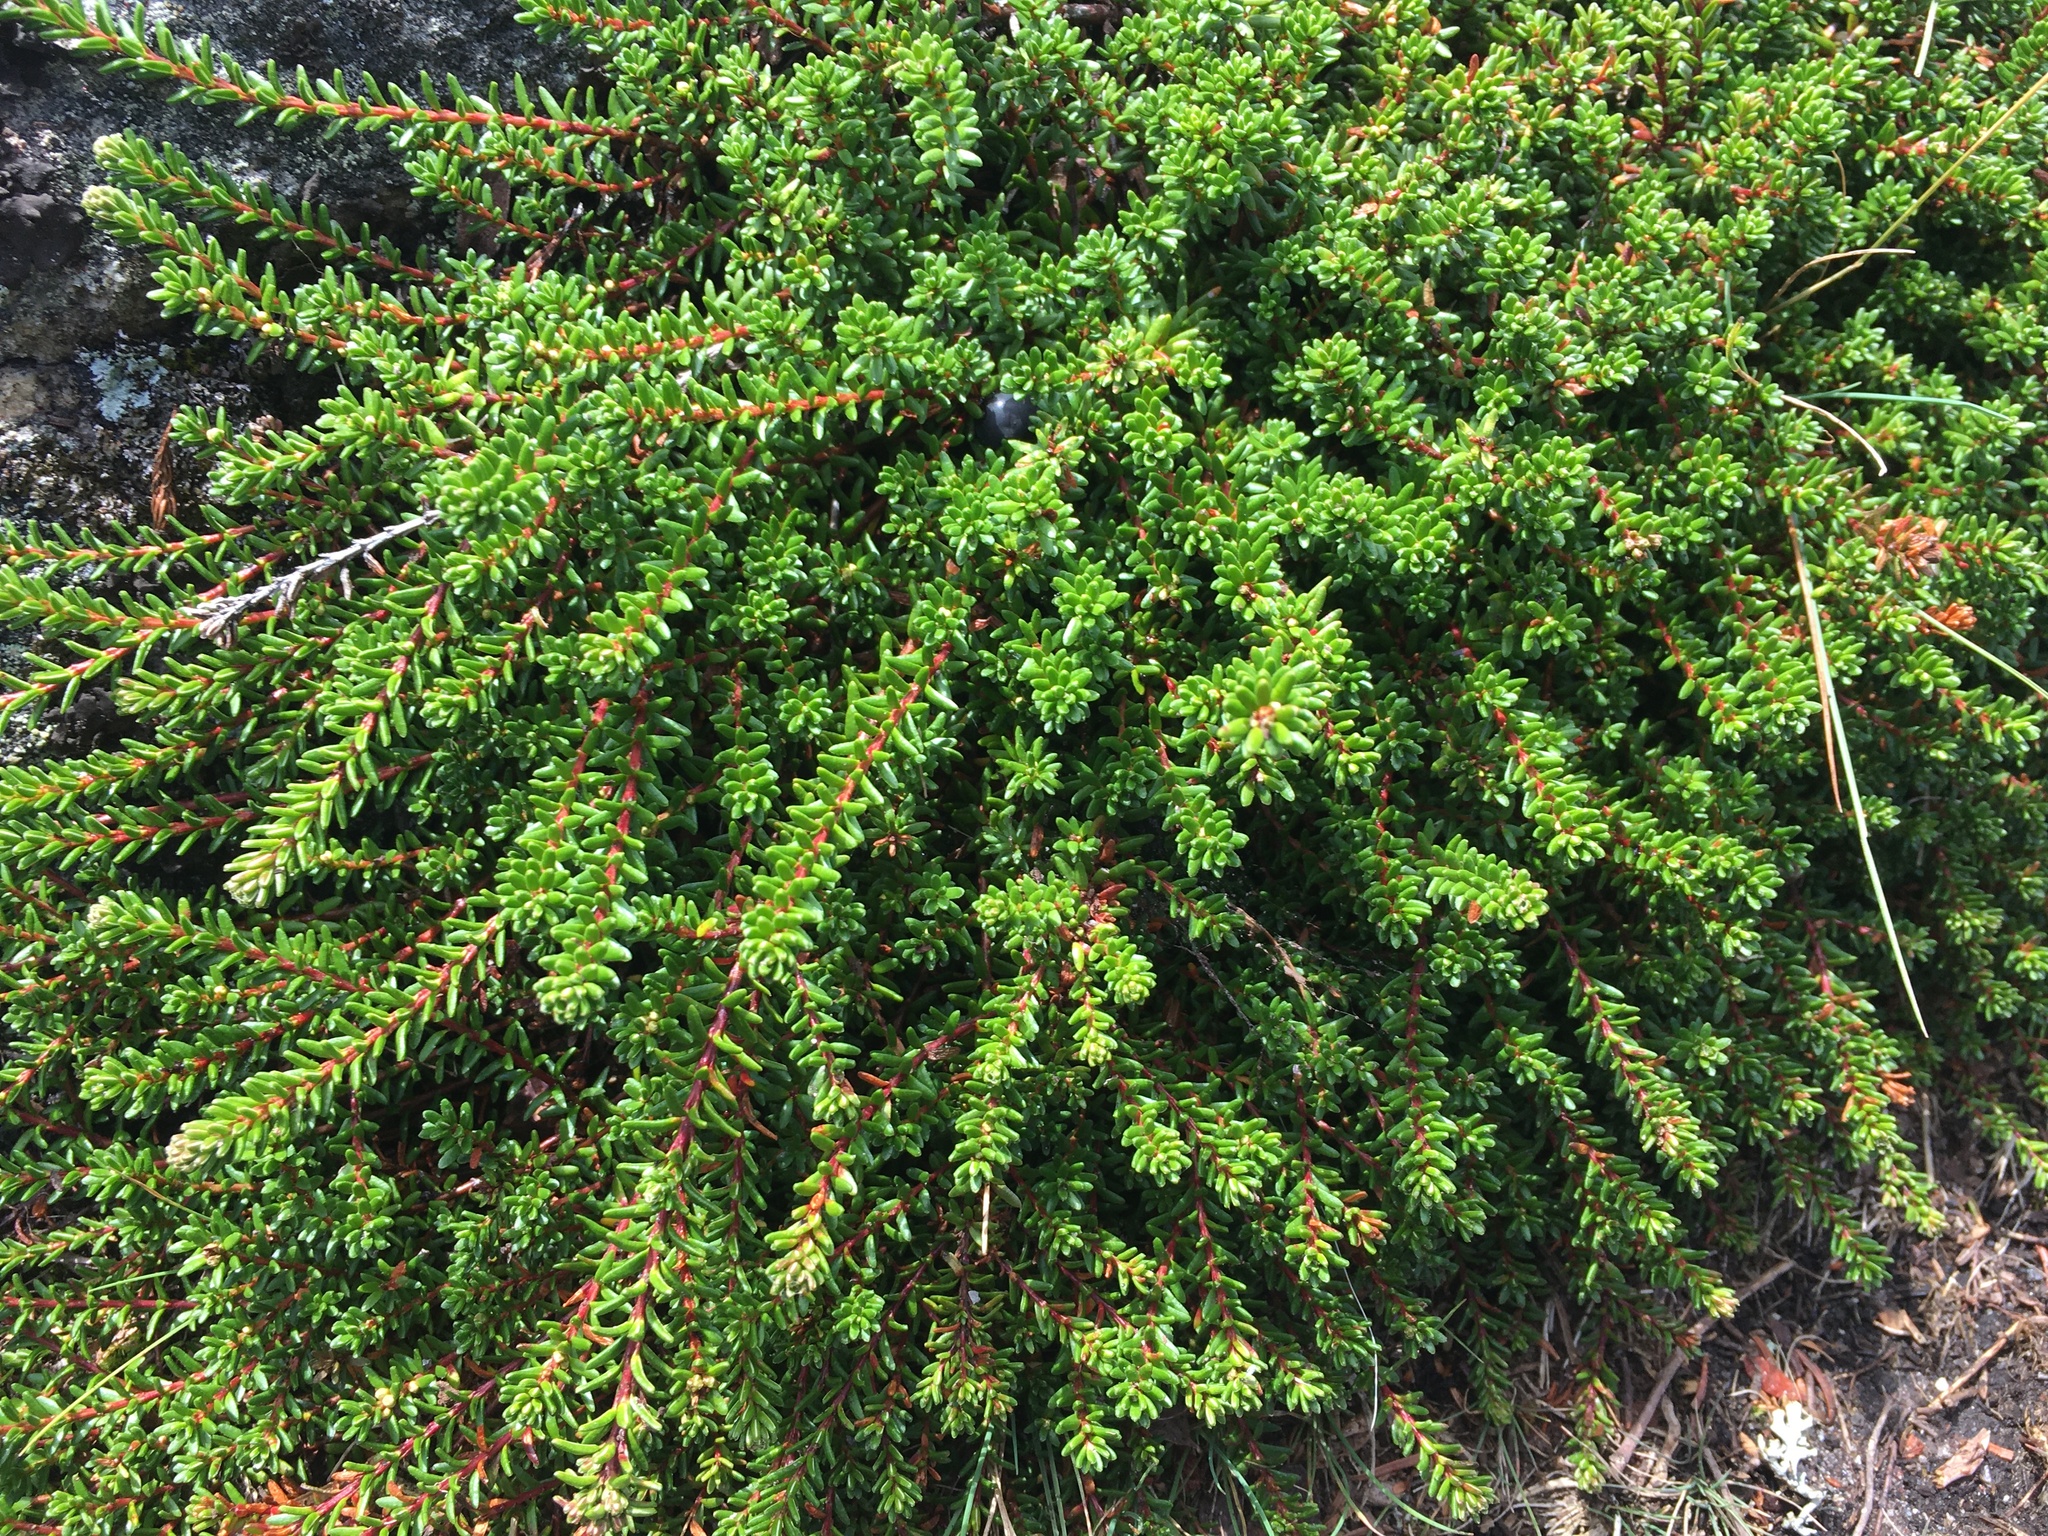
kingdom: Plantae
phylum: Tracheophyta
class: Magnoliopsida
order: Ericales
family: Ericaceae
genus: Empetrum
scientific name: Empetrum nigrum
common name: Black crowberry
